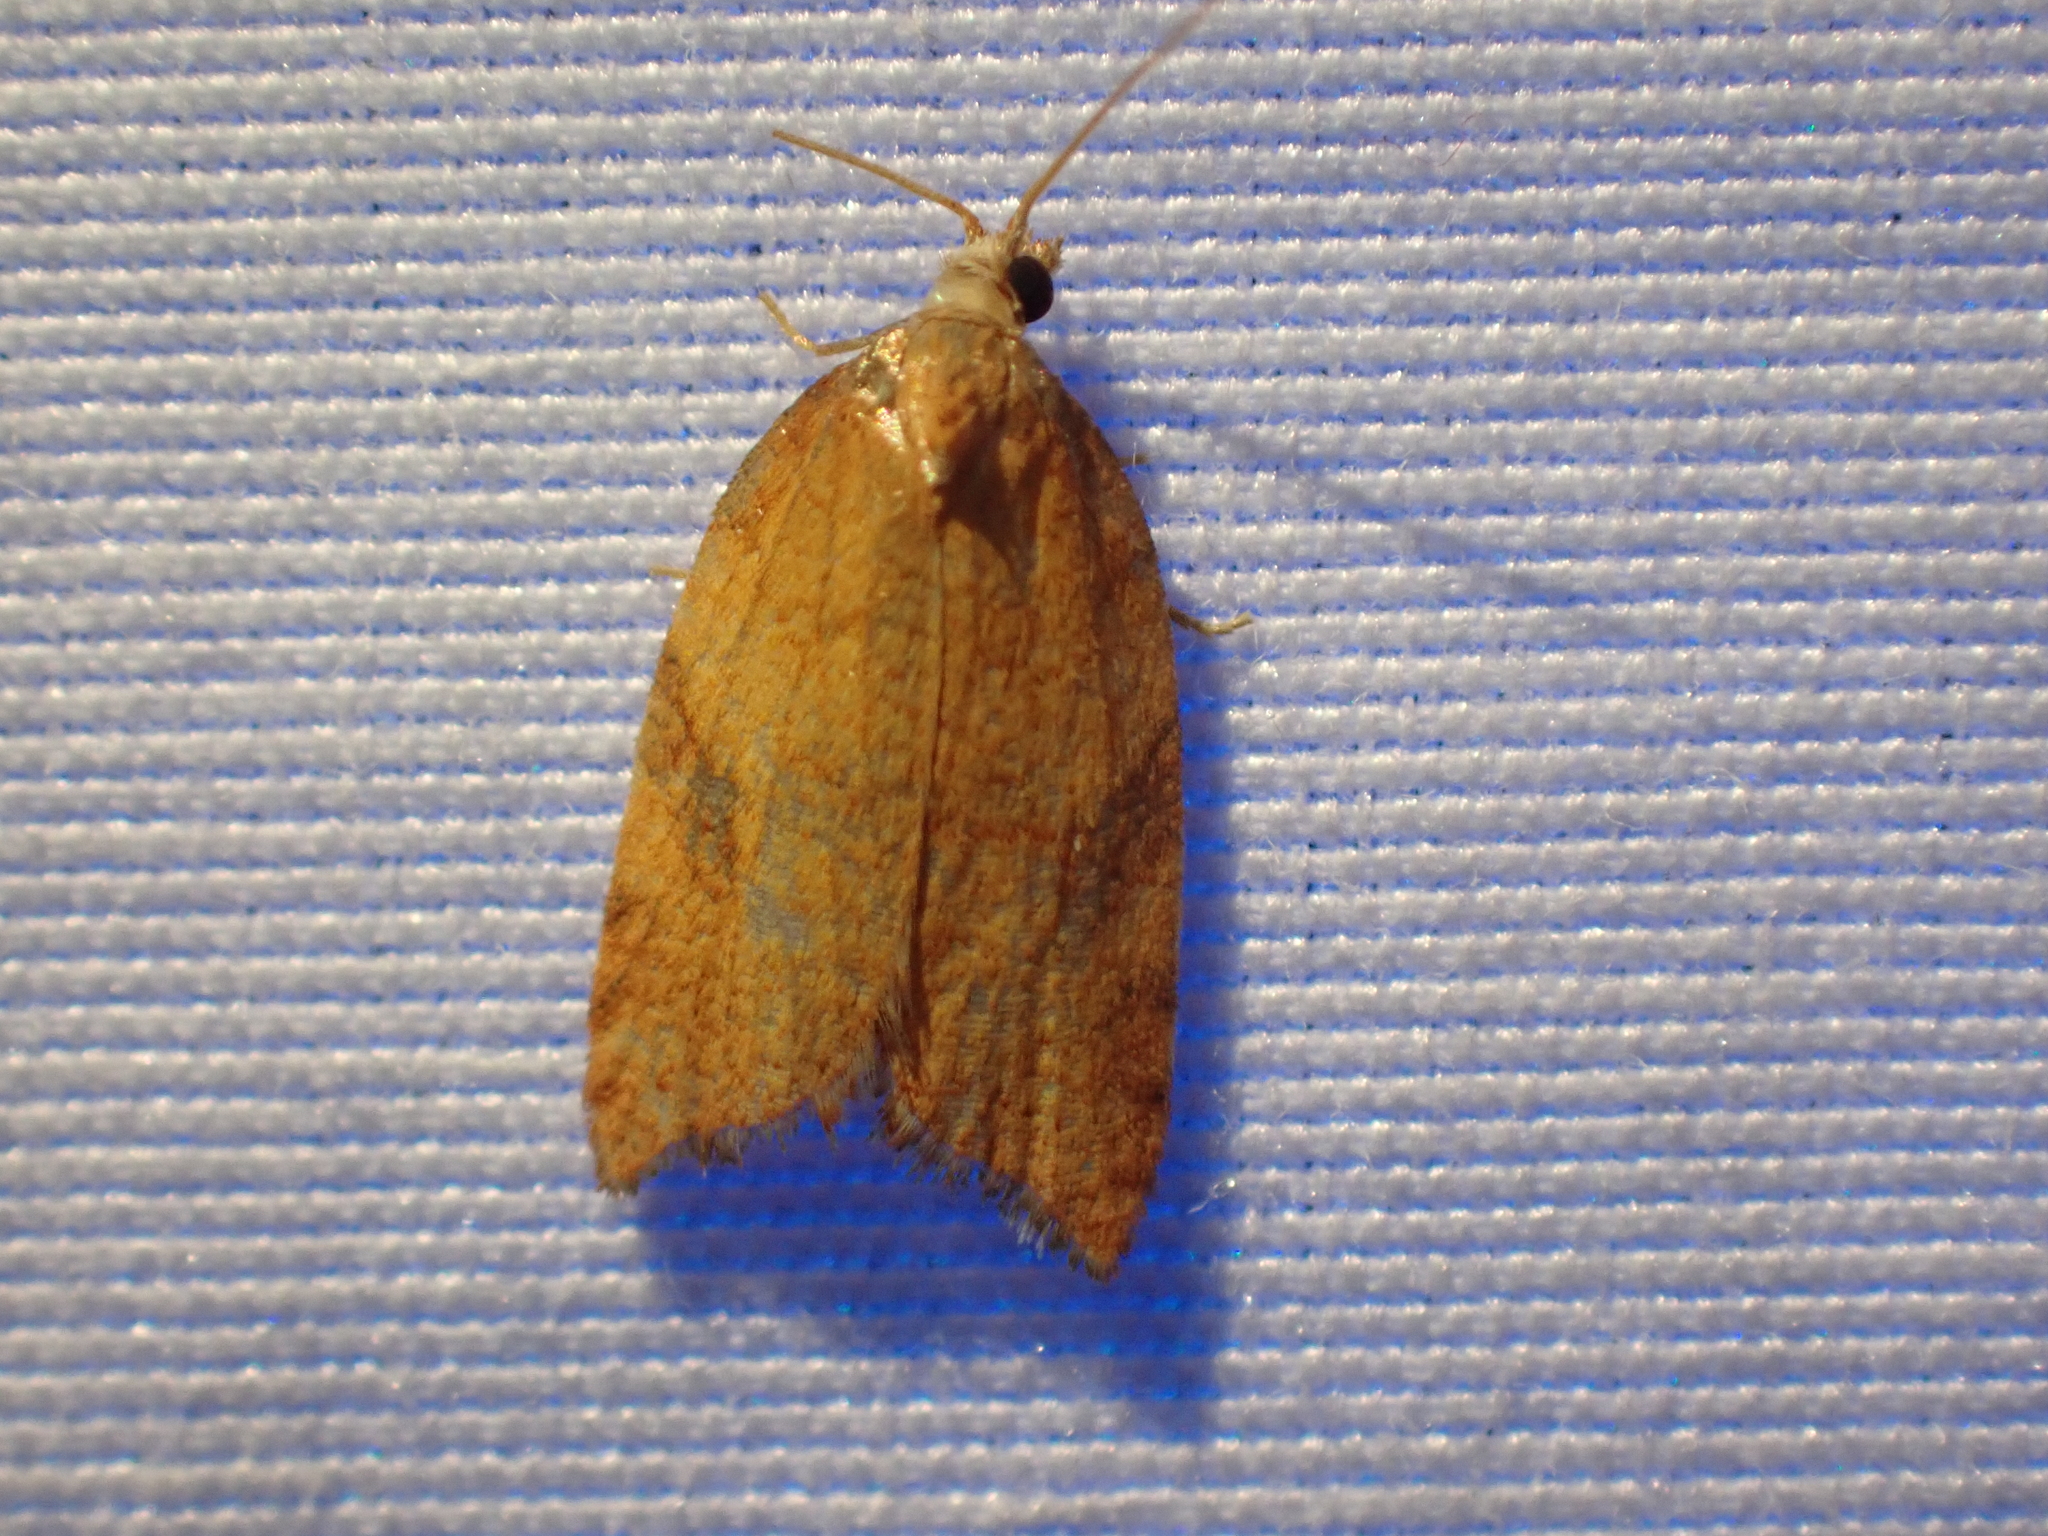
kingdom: Animalia
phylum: Arthropoda
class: Insecta
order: Lepidoptera
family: Tortricidae
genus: Acleris
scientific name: Acleris rhombana
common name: Tortricid moth
